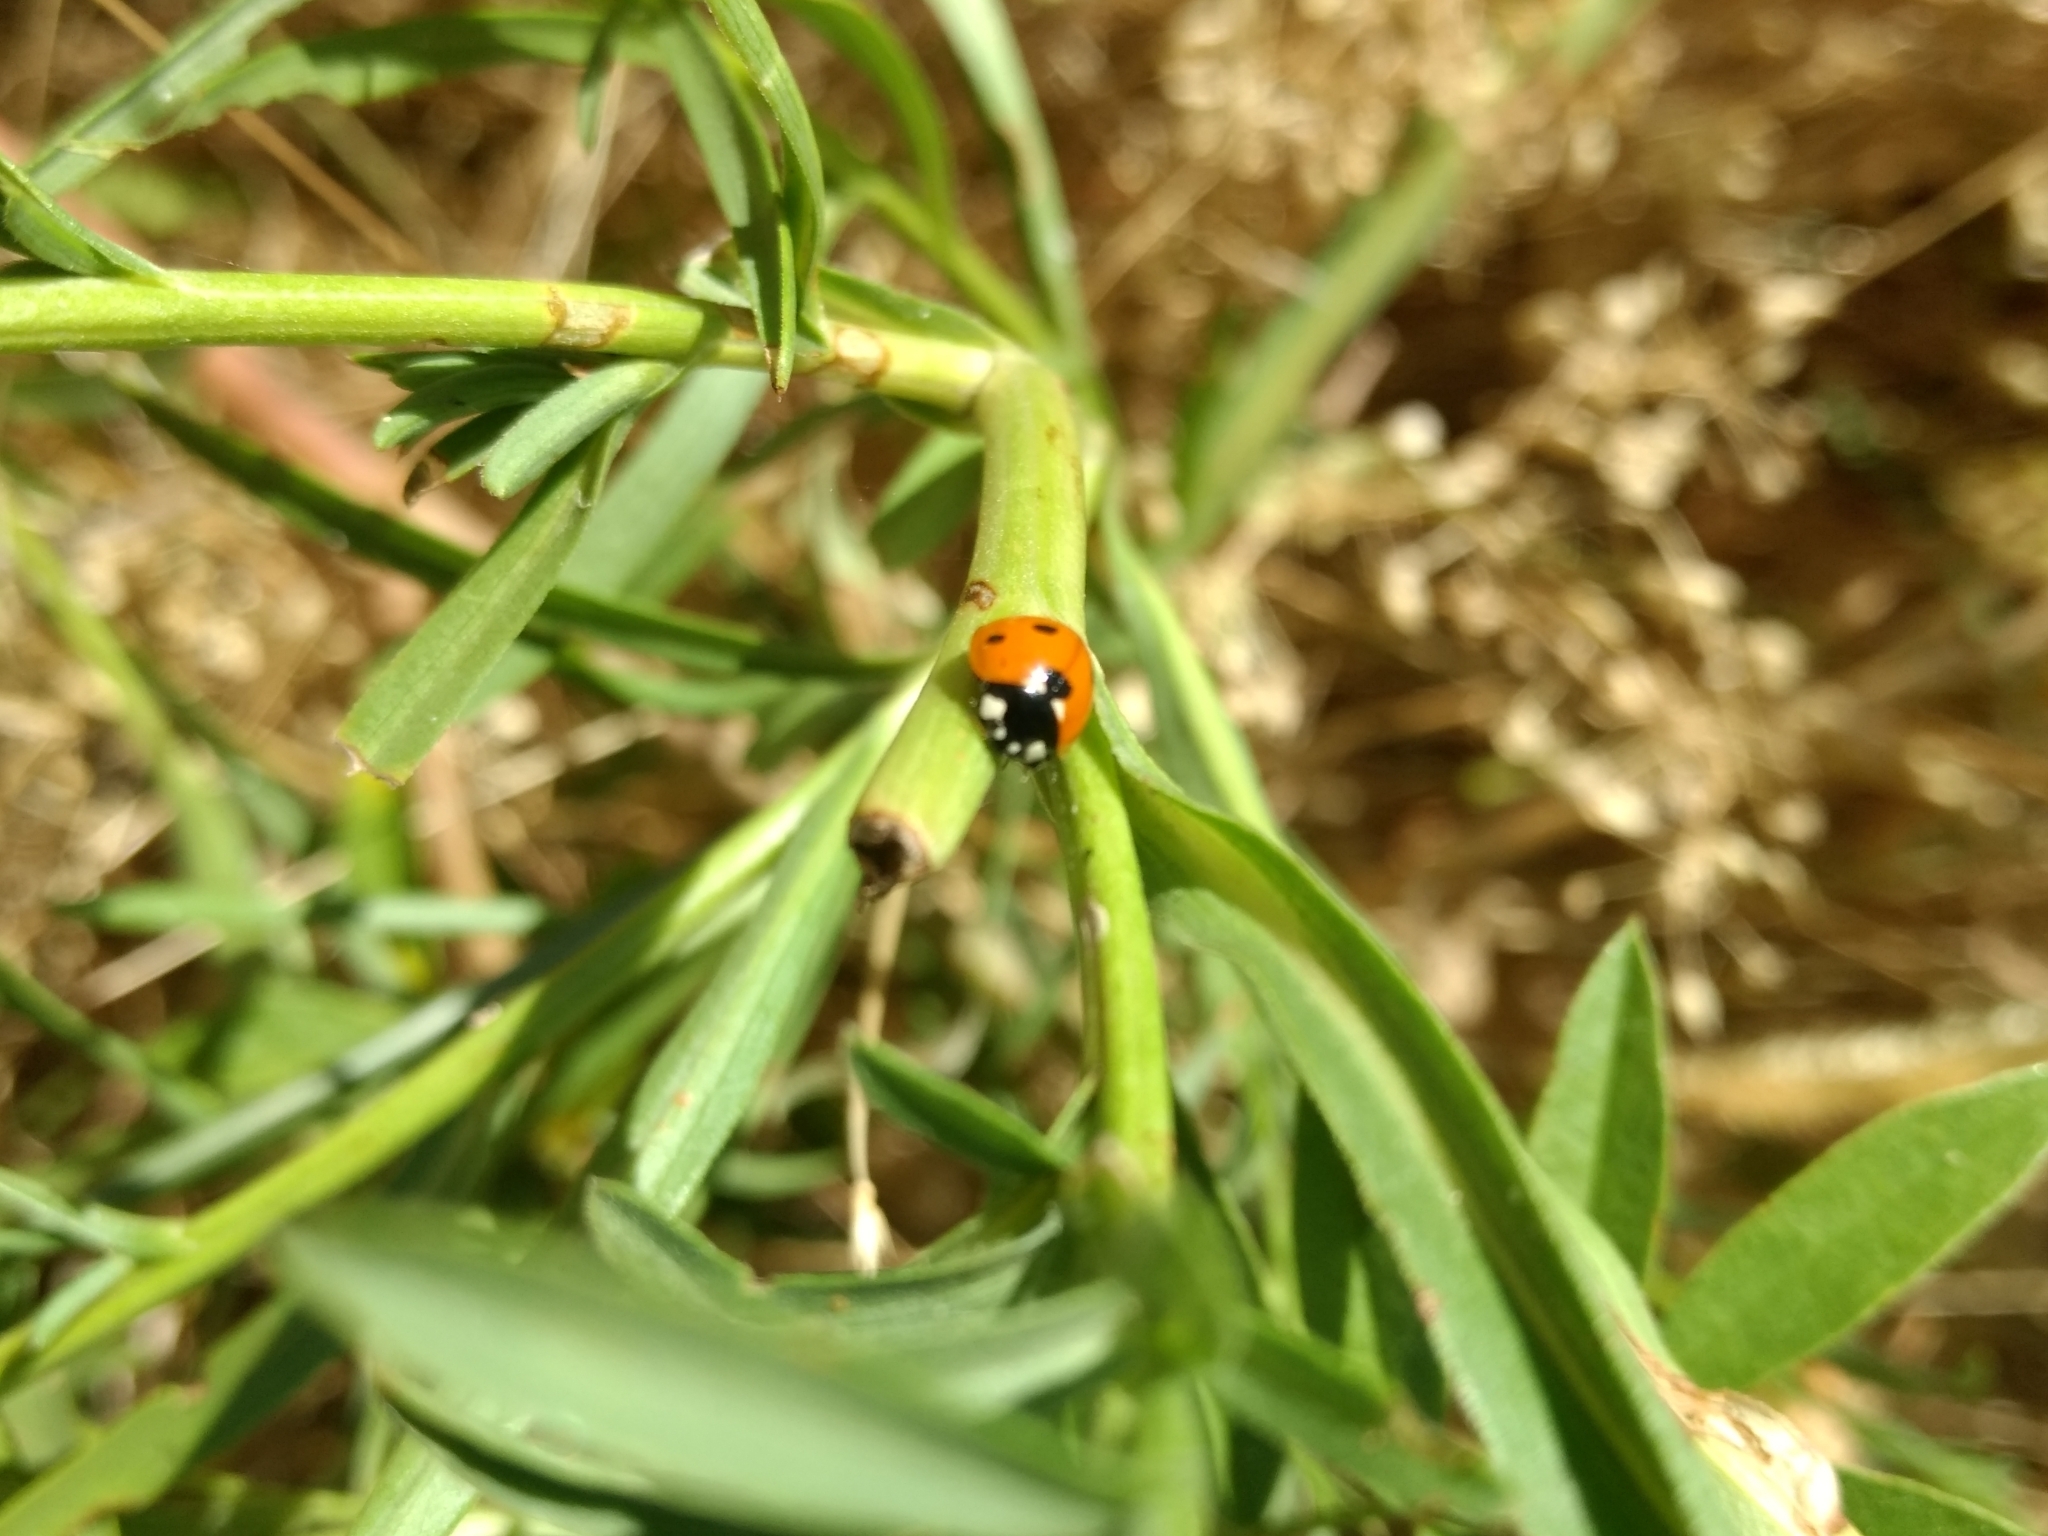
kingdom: Animalia
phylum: Arthropoda
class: Insecta
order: Coleoptera
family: Coccinellidae
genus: Coccinella
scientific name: Coccinella septempunctata
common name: Sevenspotted lady beetle
